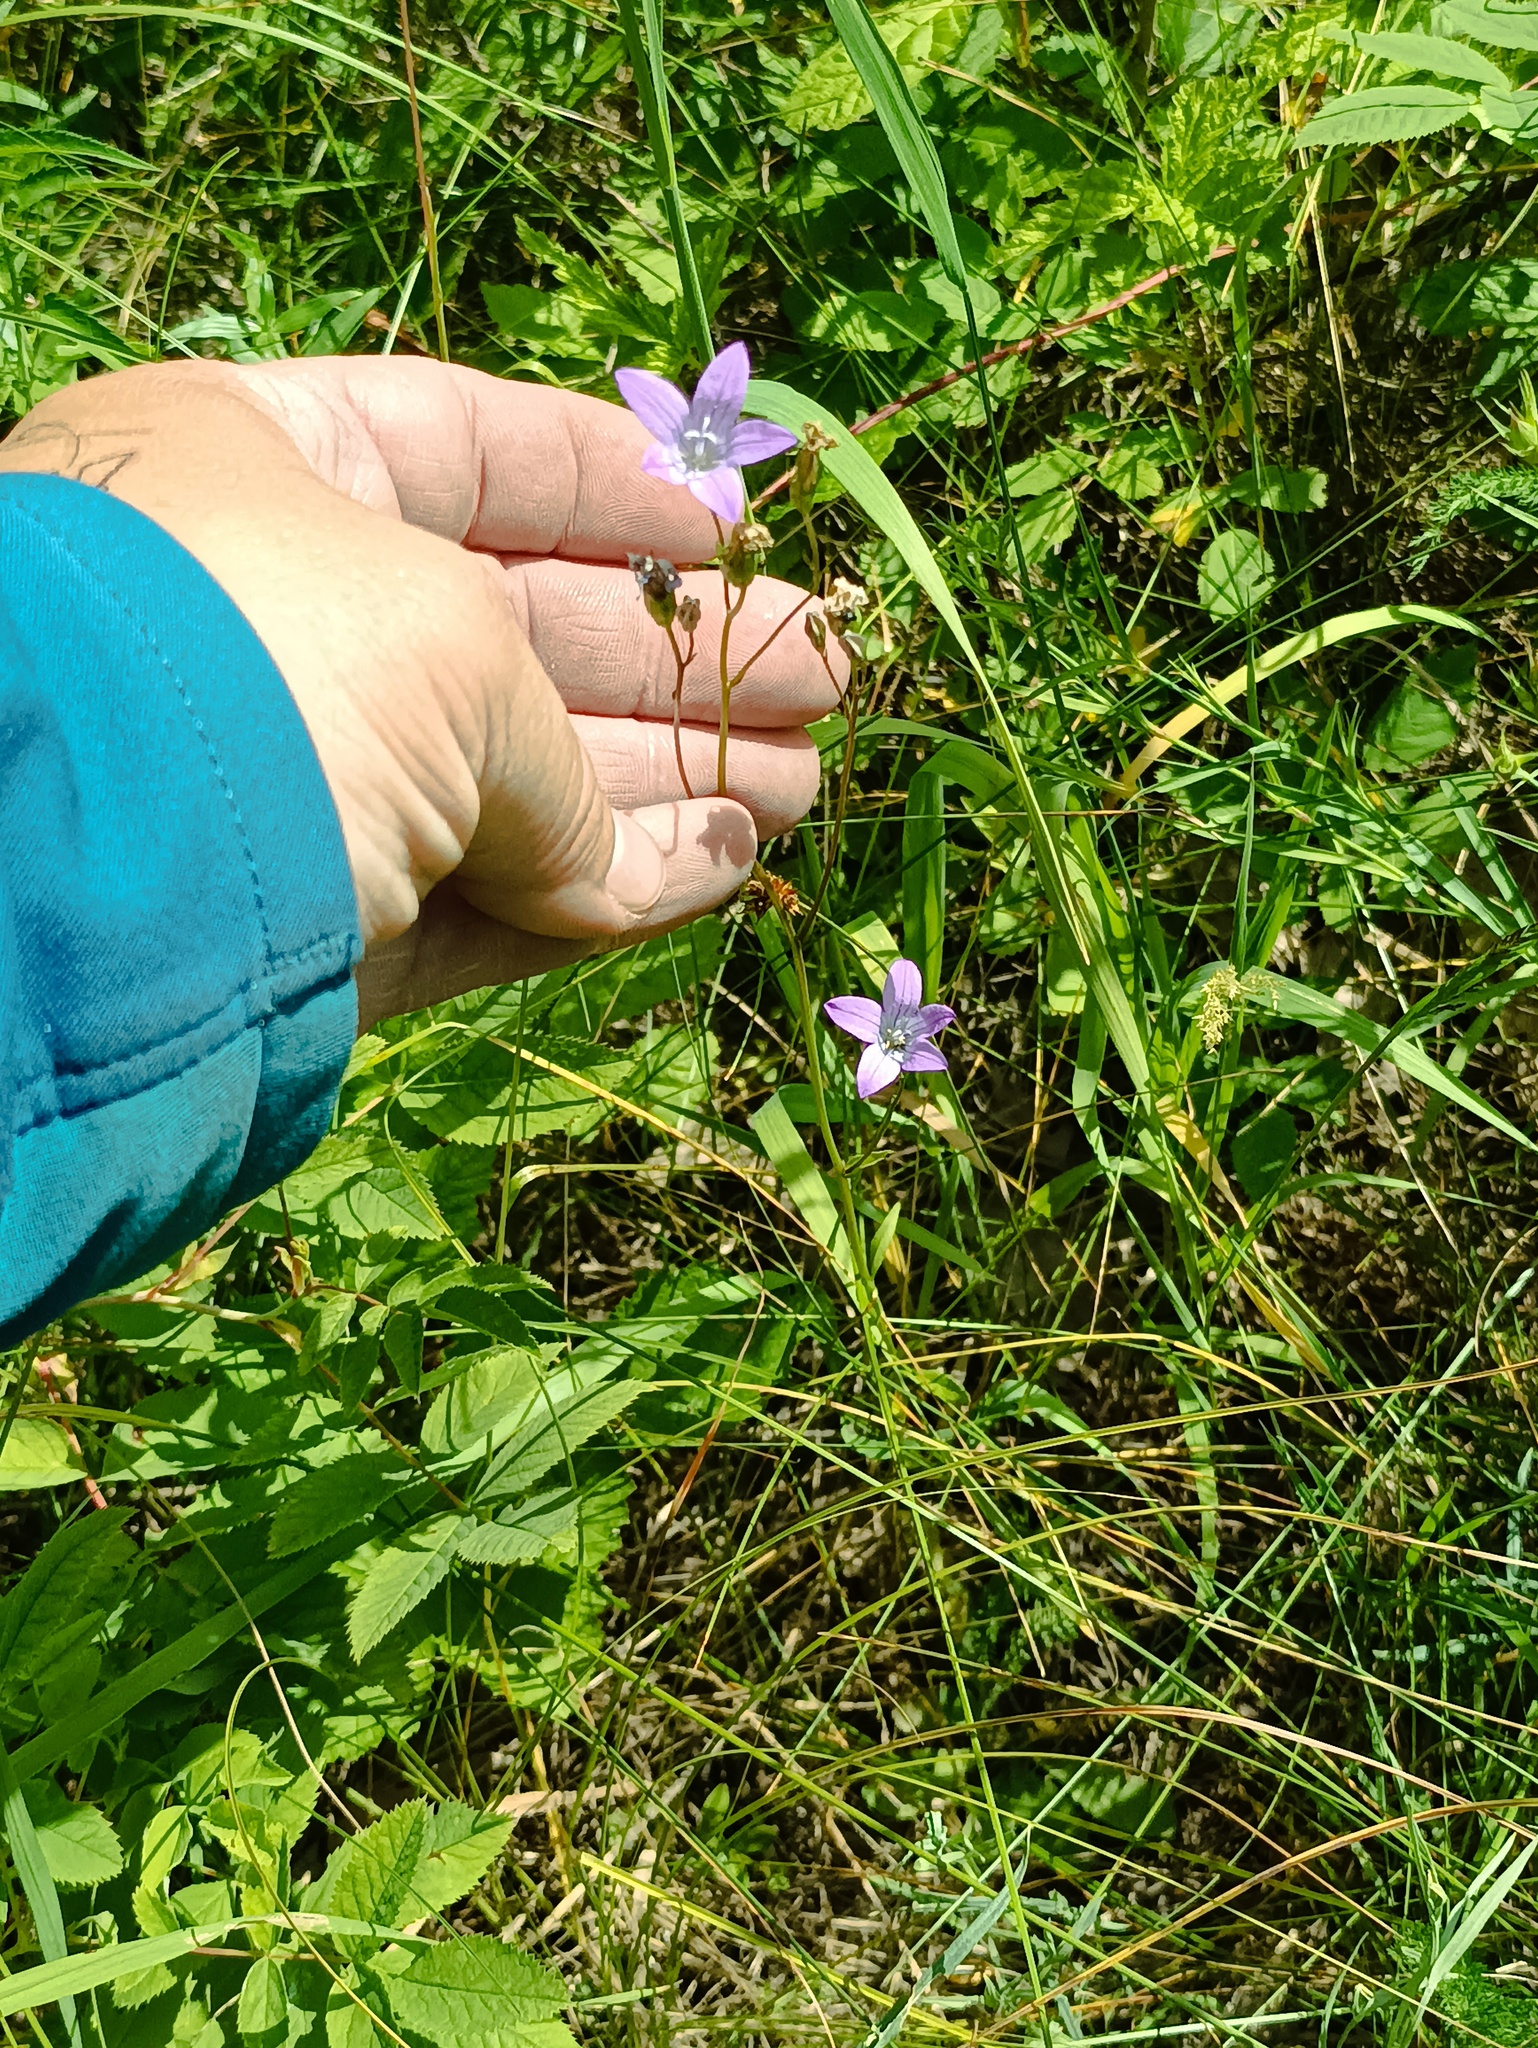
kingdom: Plantae
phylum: Tracheophyta
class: Magnoliopsida
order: Asterales
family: Campanulaceae
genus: Campanula
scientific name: Campanula patula
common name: Spreading bellflower
